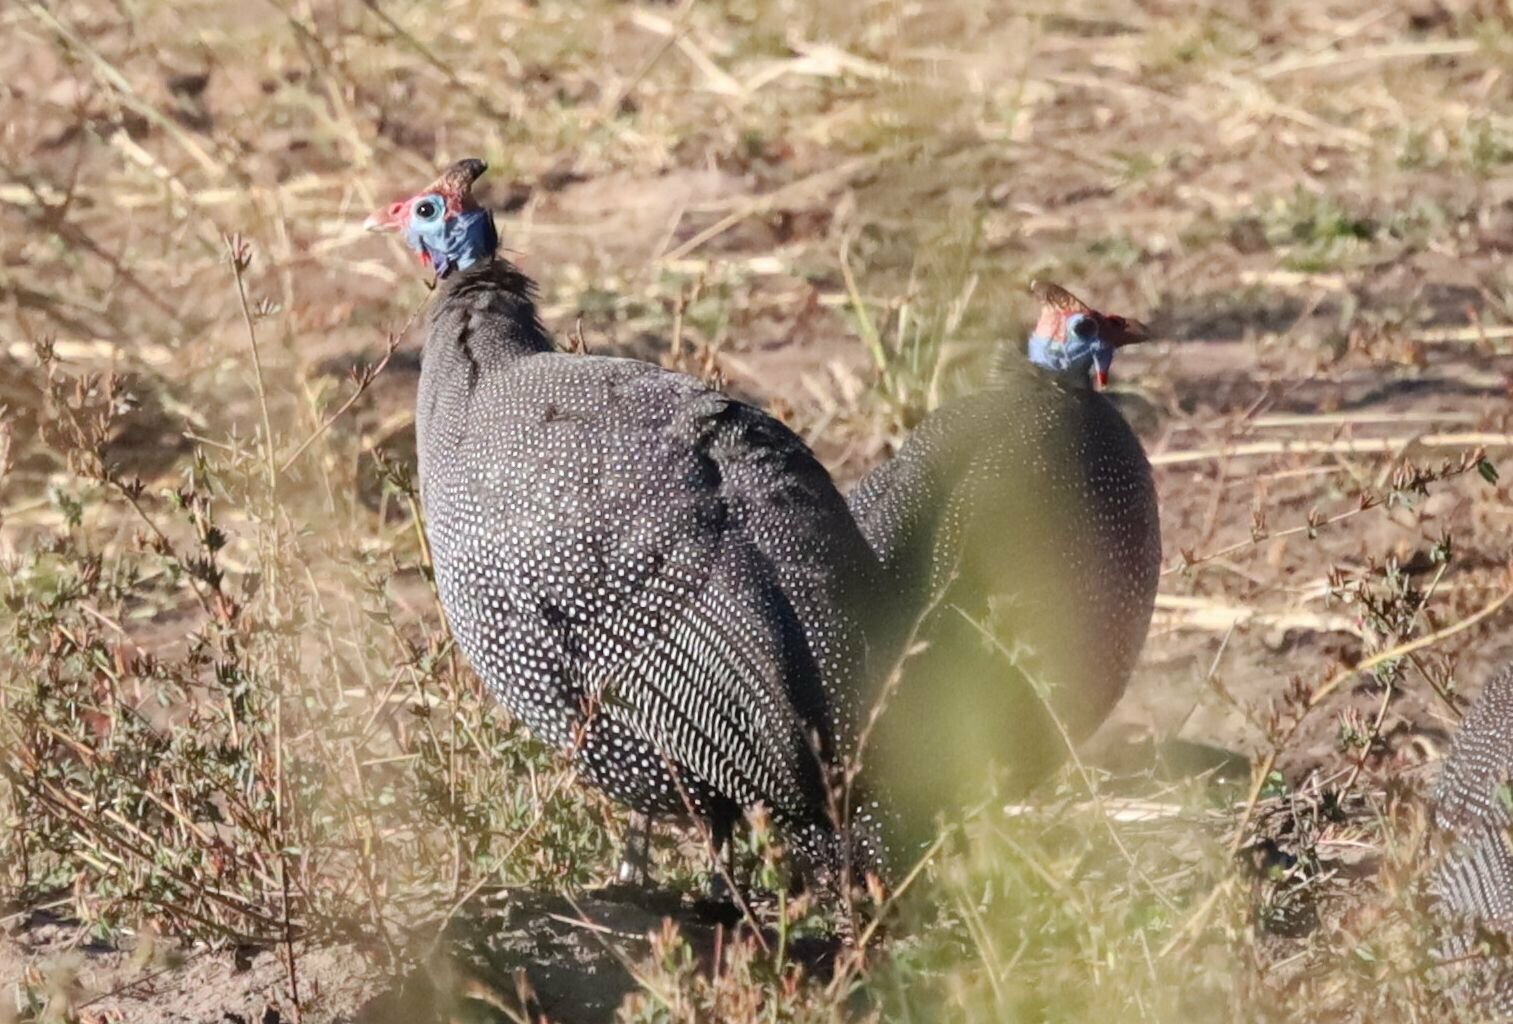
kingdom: Animalia
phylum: Chordata
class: Aves
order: Galliformes
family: Numididae
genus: Numida
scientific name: Numida meleagris
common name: Helmeted guineafowl
